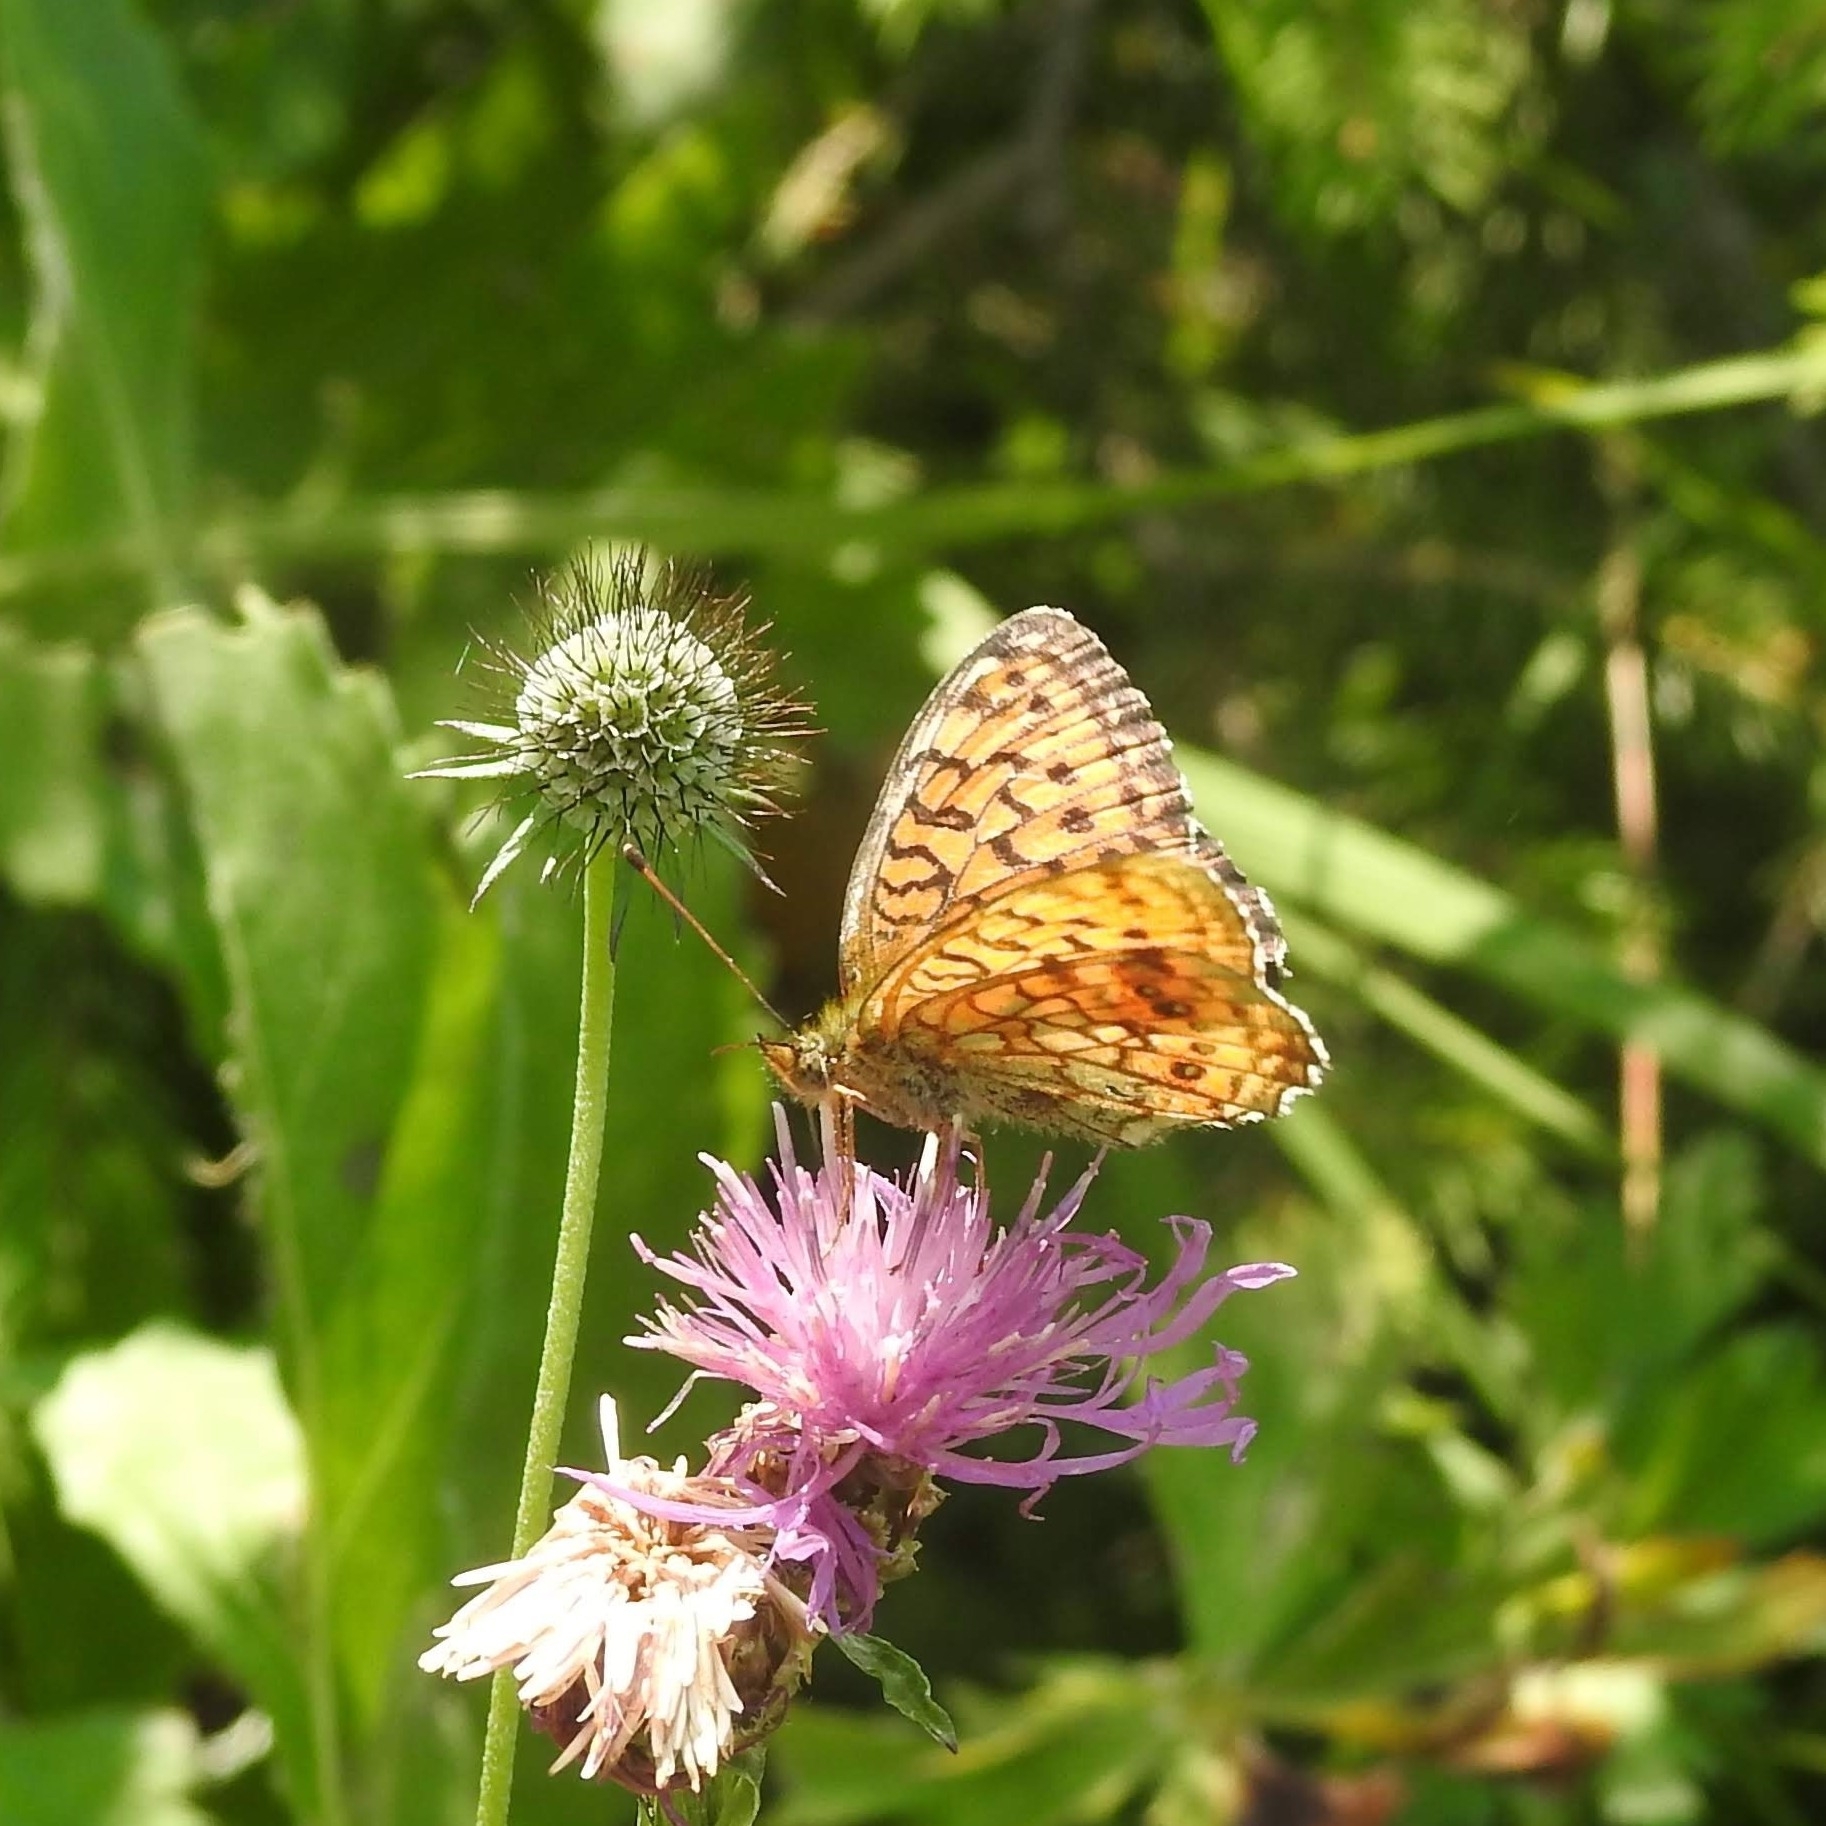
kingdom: Animalia
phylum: Arthropoda
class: Insecta
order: Lepidoptera
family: Nymphalidae
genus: Brenthis
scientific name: Brenthis ino
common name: Lesser marbled fritillary
